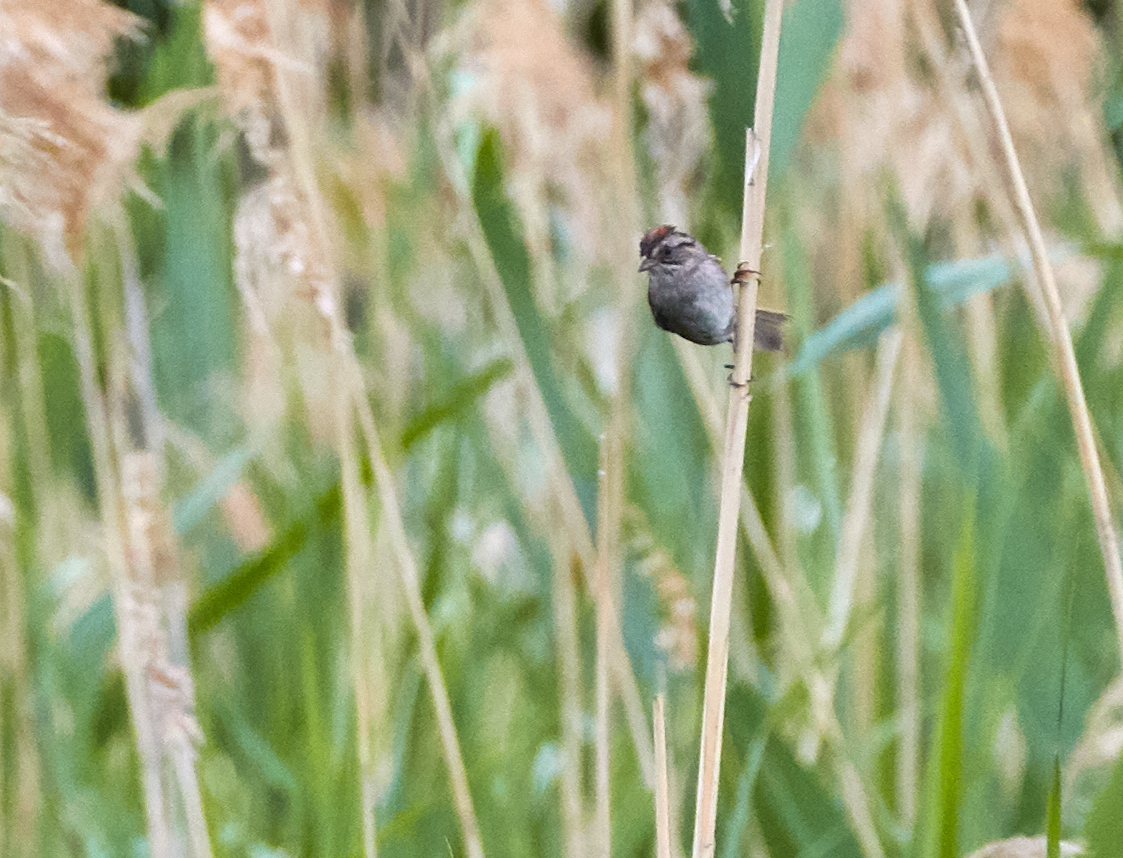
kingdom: Animalia
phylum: Chordata
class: Aves
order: Passeriformes
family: Passerellidae
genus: Melospiza
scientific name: Melospiza georgiana
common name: Swamp sparrow
